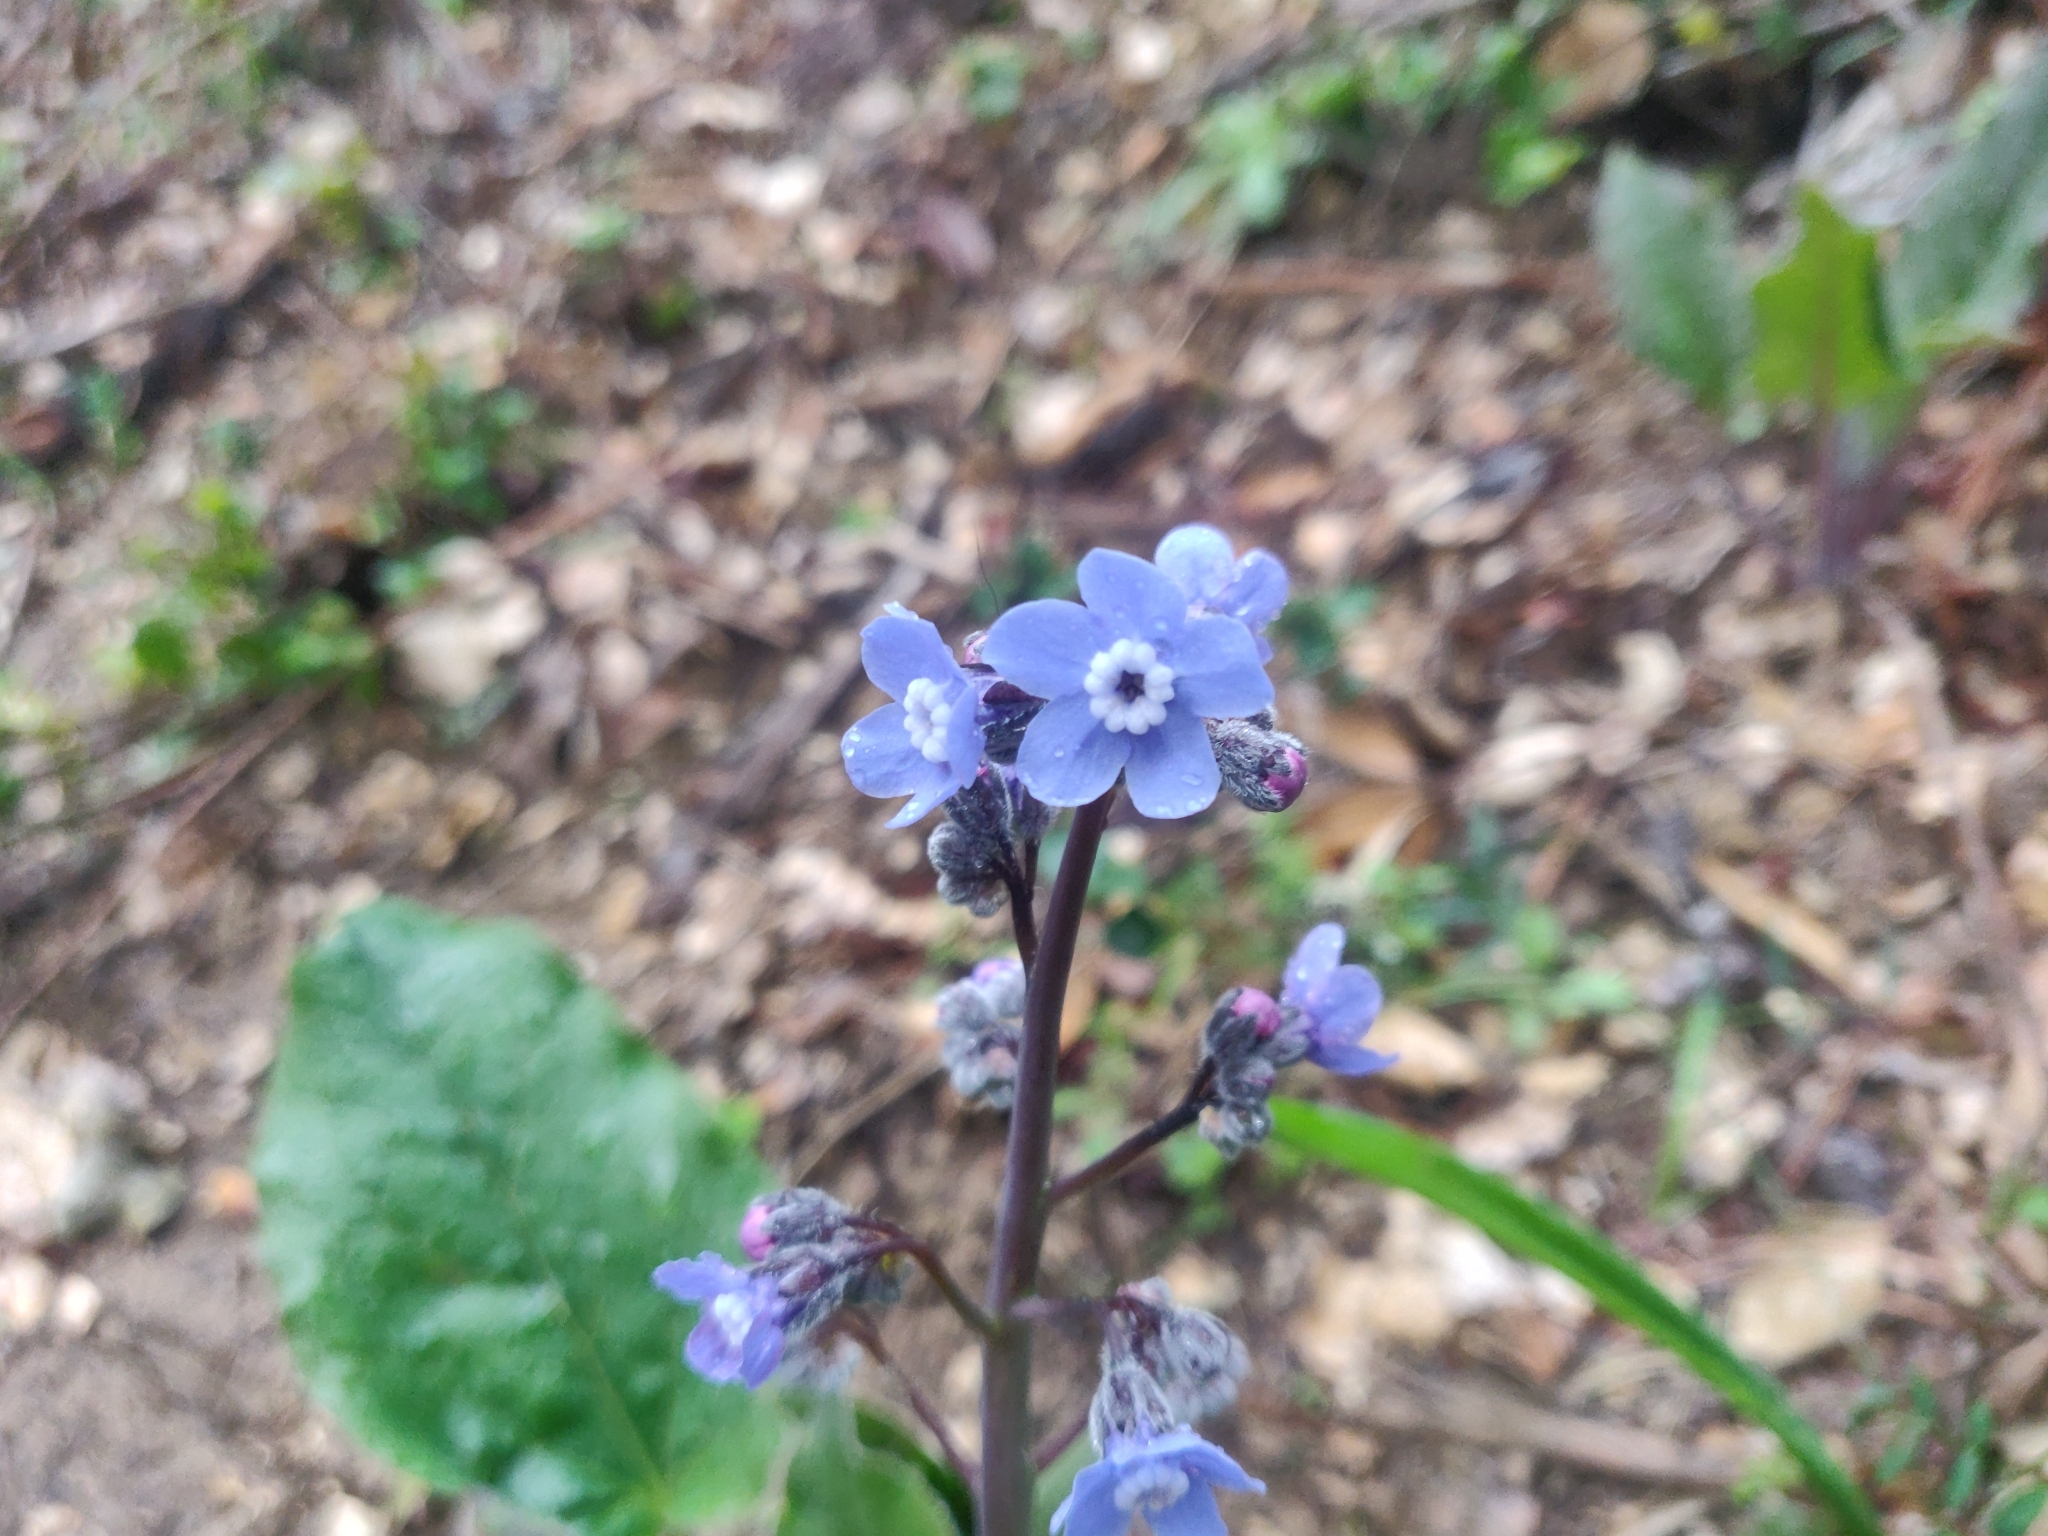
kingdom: Plantae
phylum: Tracheophyta
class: Magnoliopsida
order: Boraginales
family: Boraginaceae
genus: Adelinia
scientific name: Adelinia grande
